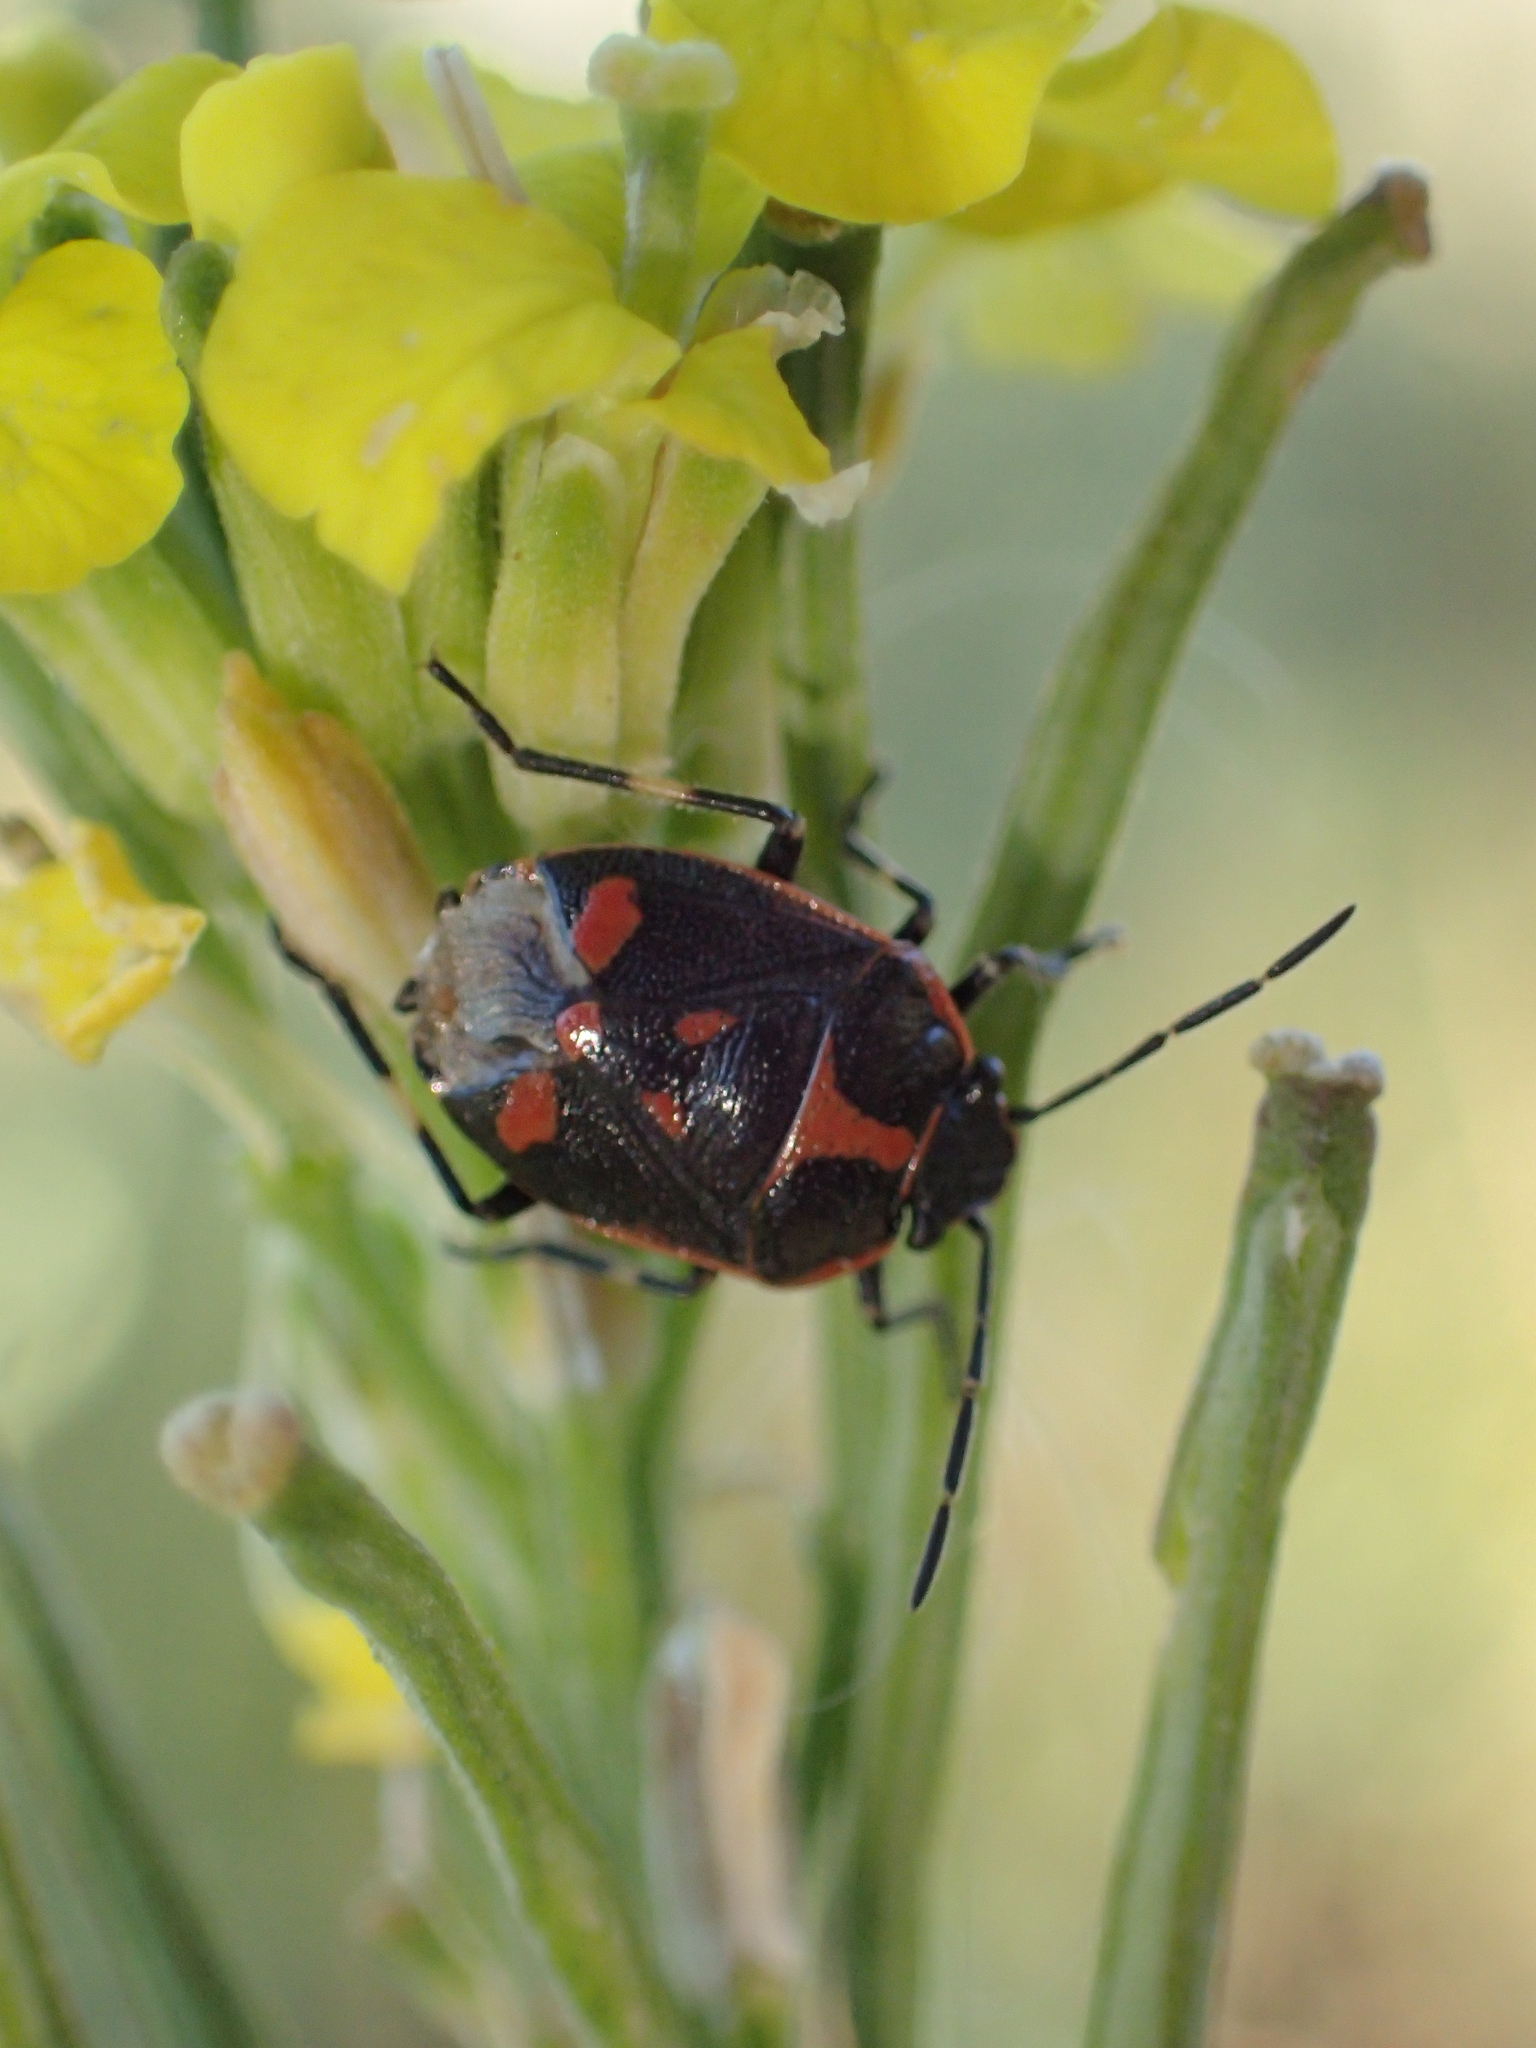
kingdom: Animalia
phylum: Arthropoda
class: Insecta
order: Hemiptera
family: Pentatomidae
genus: Eurydema
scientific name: Eurydema oleracea
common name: Cabbage bug
